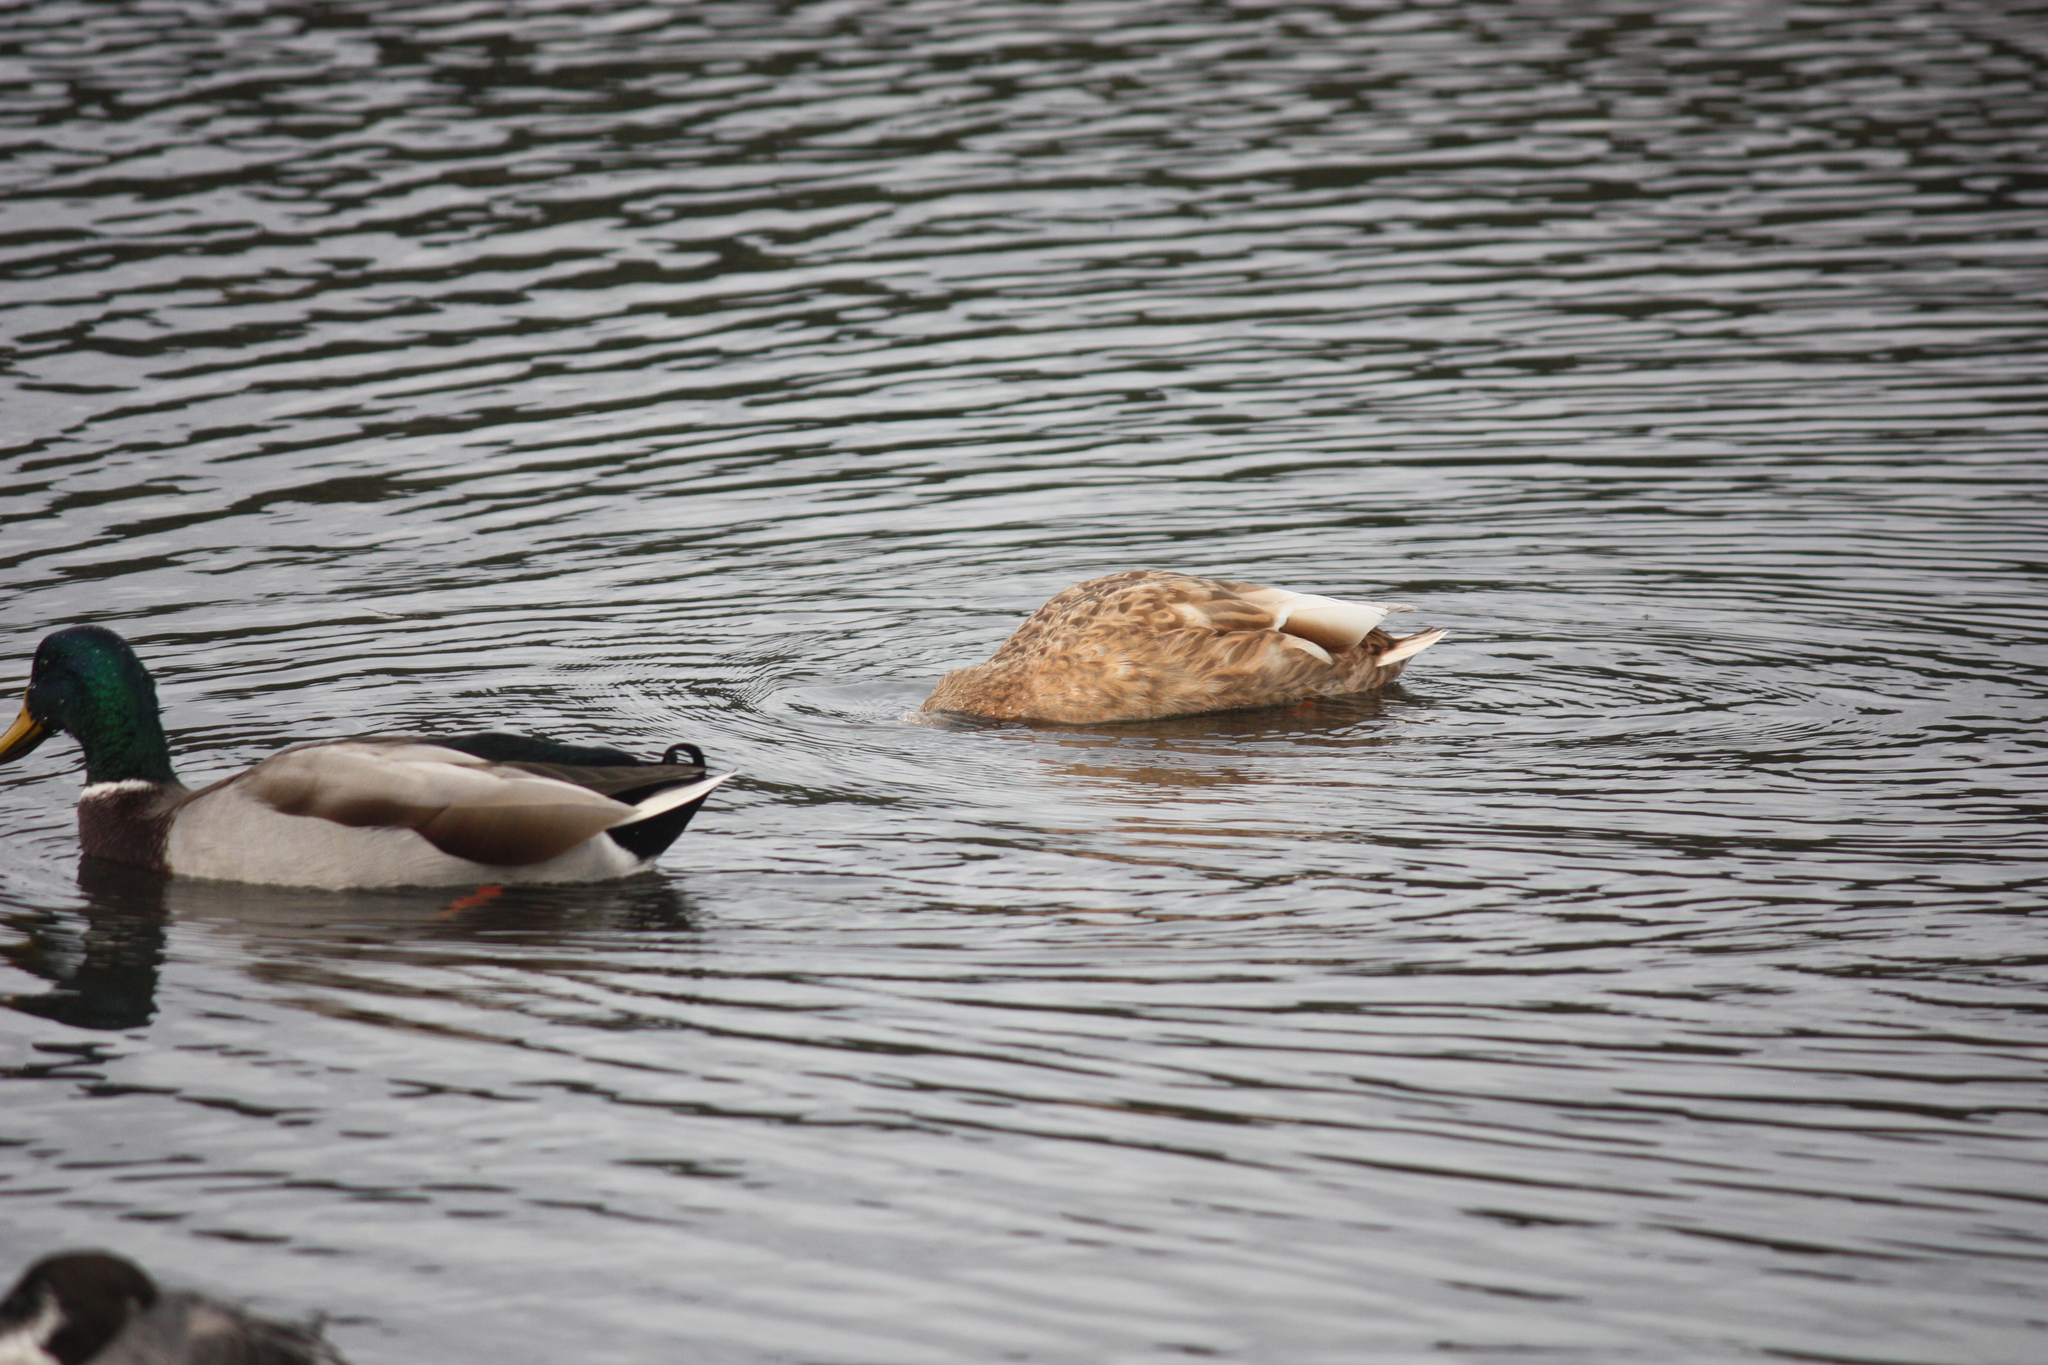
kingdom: Animalia
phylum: Chordata
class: Aves
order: Anseriformes
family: Anatidae
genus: Anas
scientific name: Anas platyrhynchos
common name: Mallard
